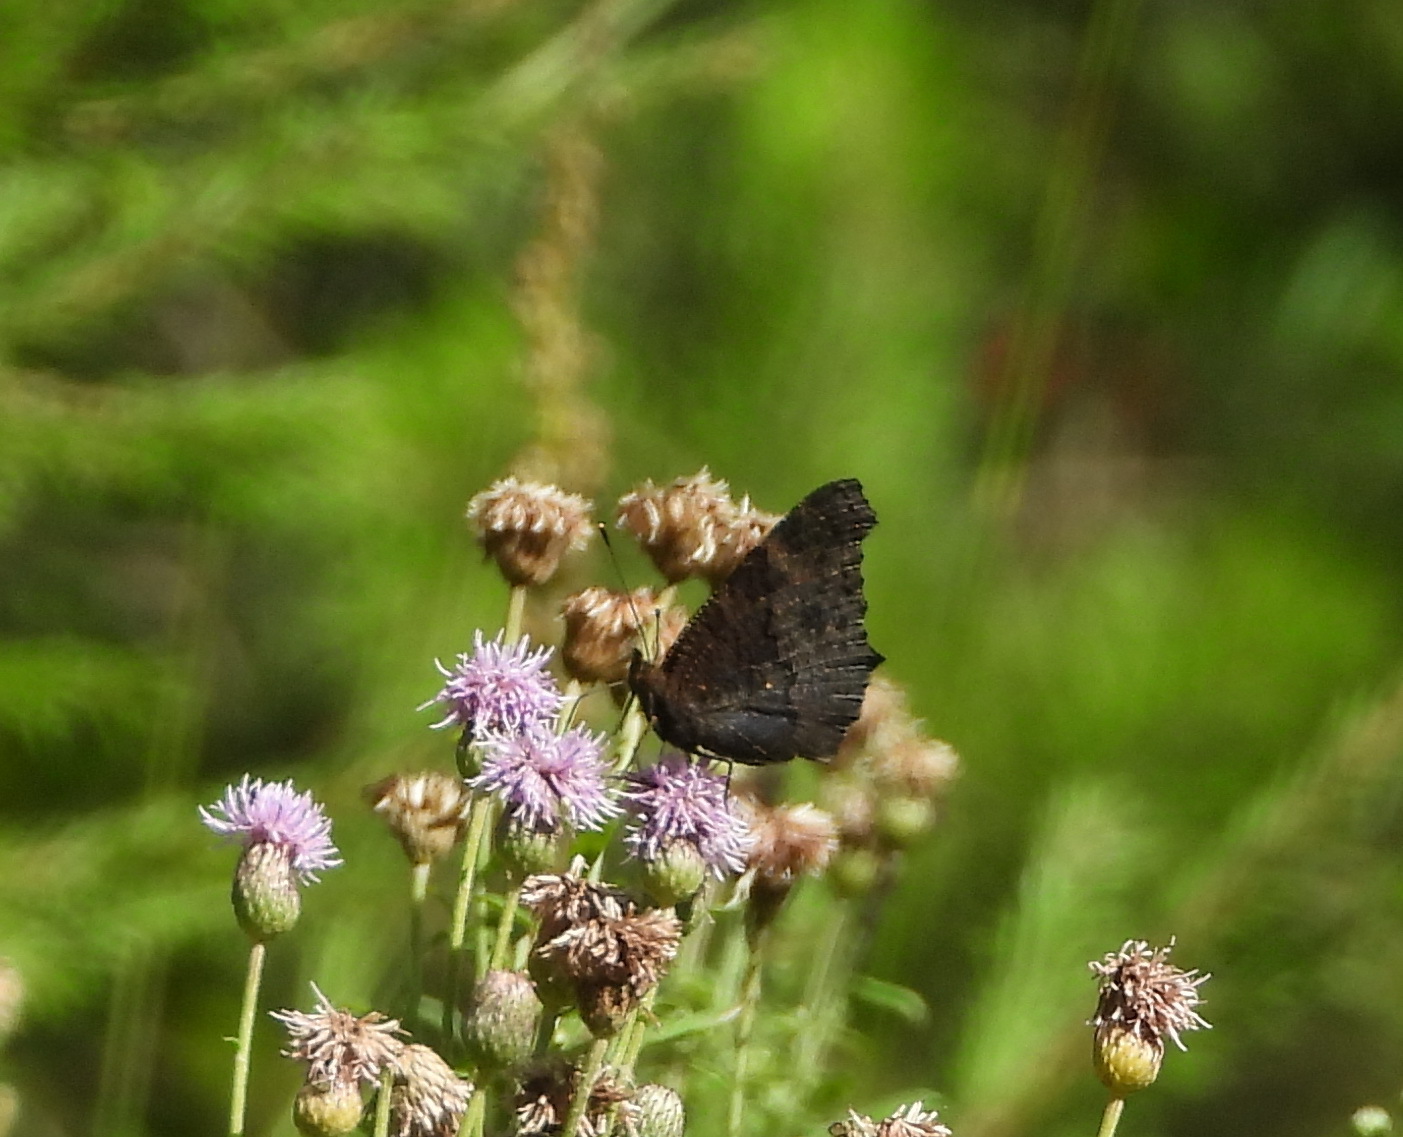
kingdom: Animalia
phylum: Arthropoda
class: Insecta
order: Lepidoptera
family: Nymphalidae
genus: Aglais
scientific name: Aglais io
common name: Peacock
